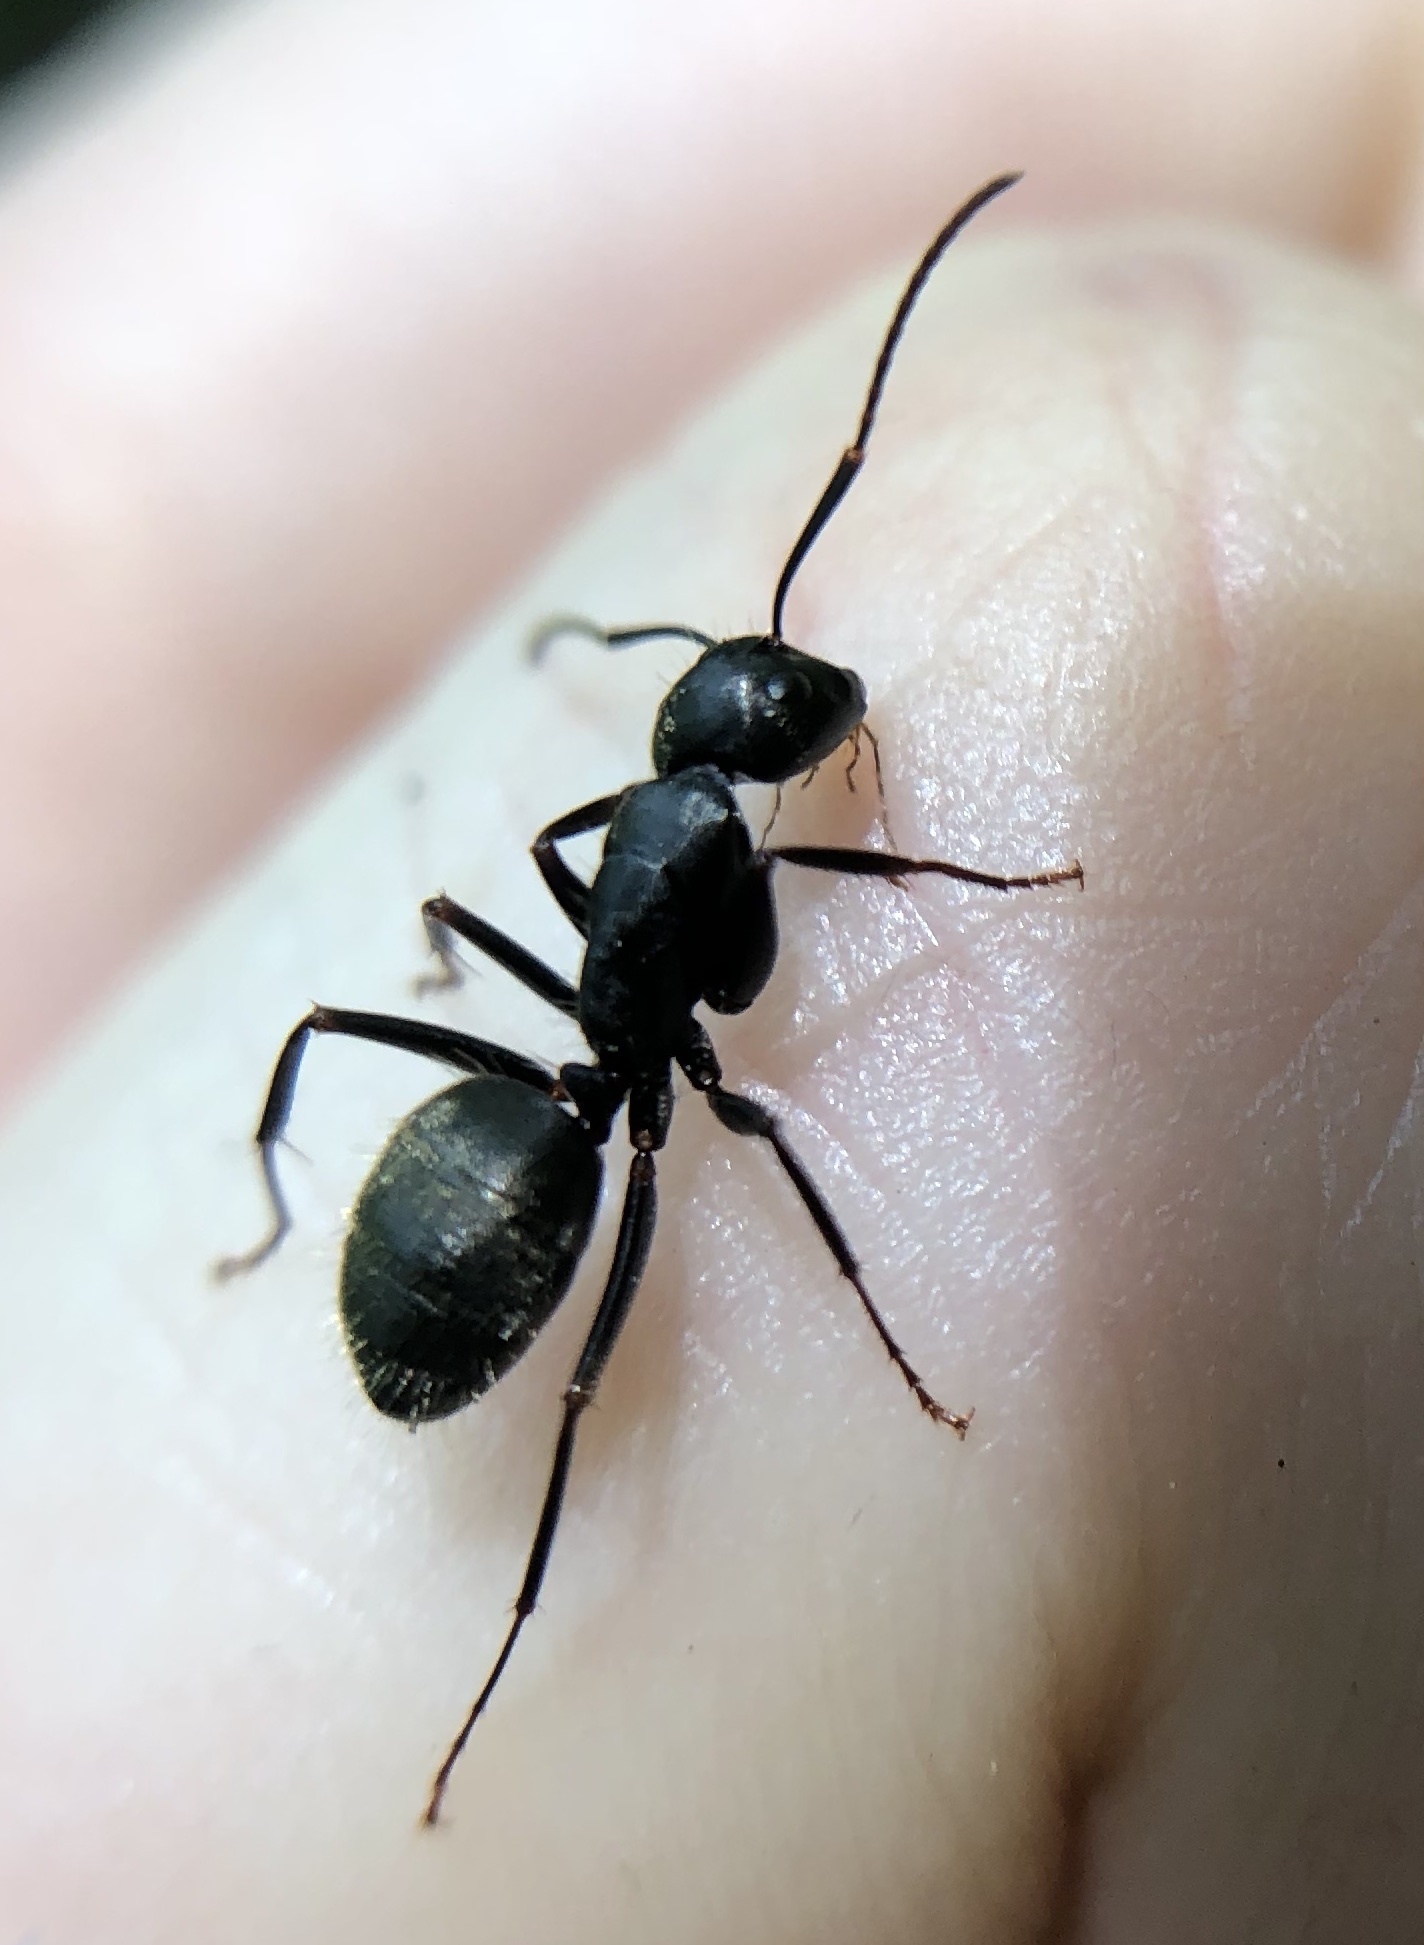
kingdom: Animalia
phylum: Arthropoda
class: Insecta
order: Hymenoptera
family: Formicidae
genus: Camponotus
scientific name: Camponotus pennsylvanicus
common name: Black carpenter ant
